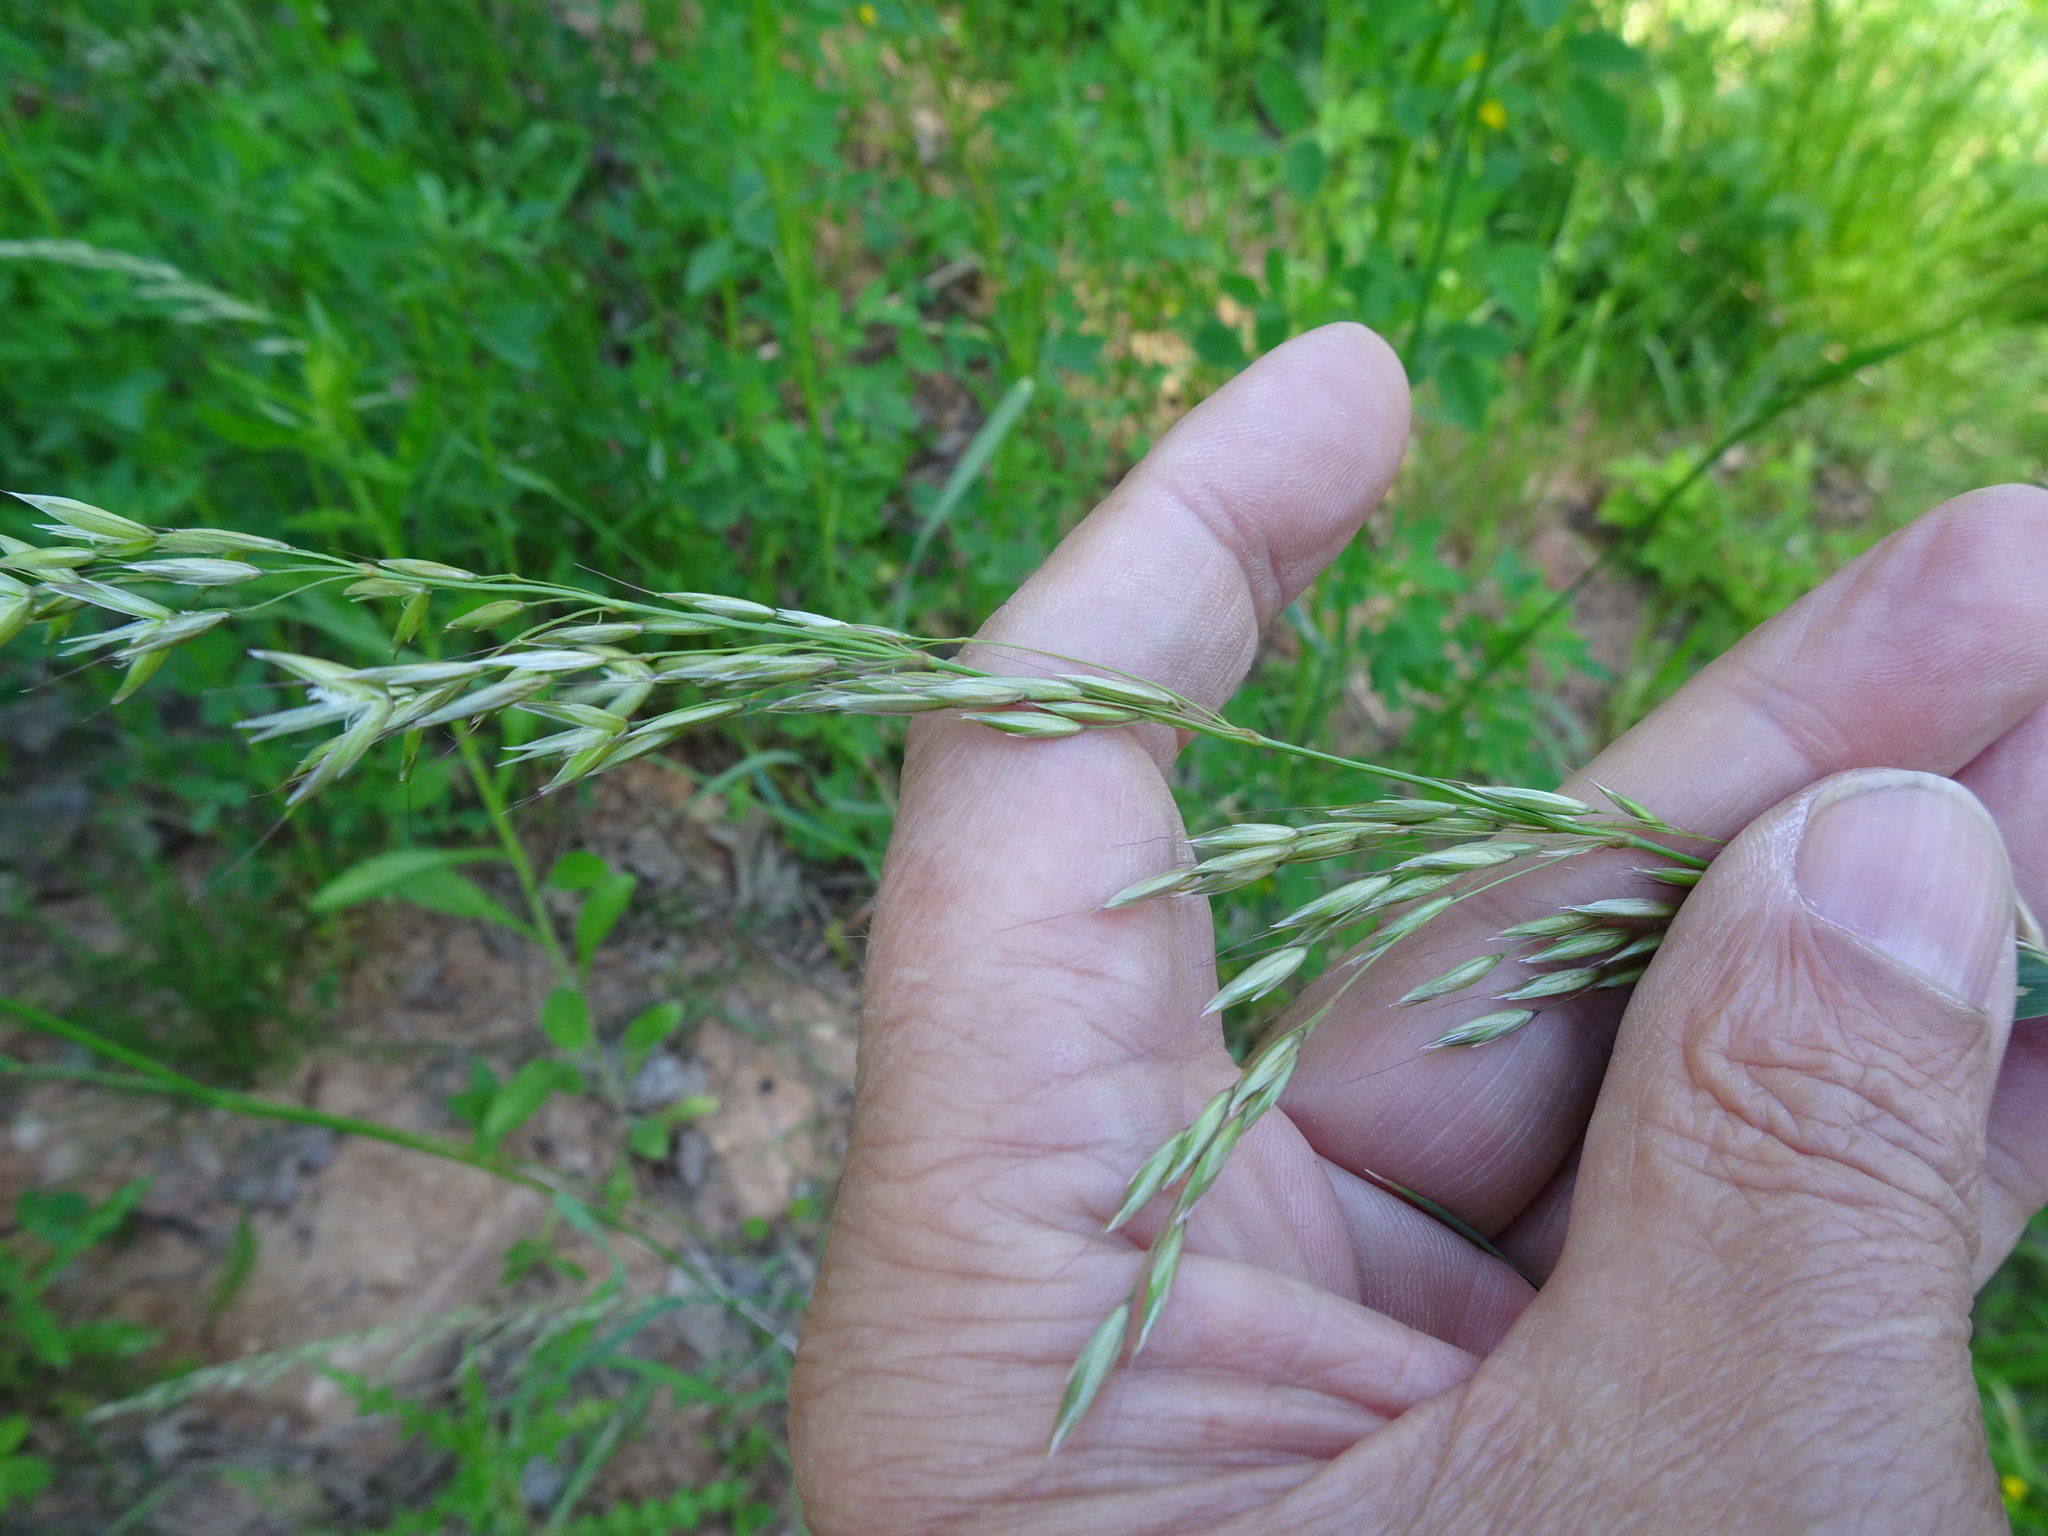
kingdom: Plantae
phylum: Tracheophyta
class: Liliopsida
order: Poales
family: Poaceae
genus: Arrhenatherum
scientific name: Arrhenatherum elatius
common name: Tall oatgrass
